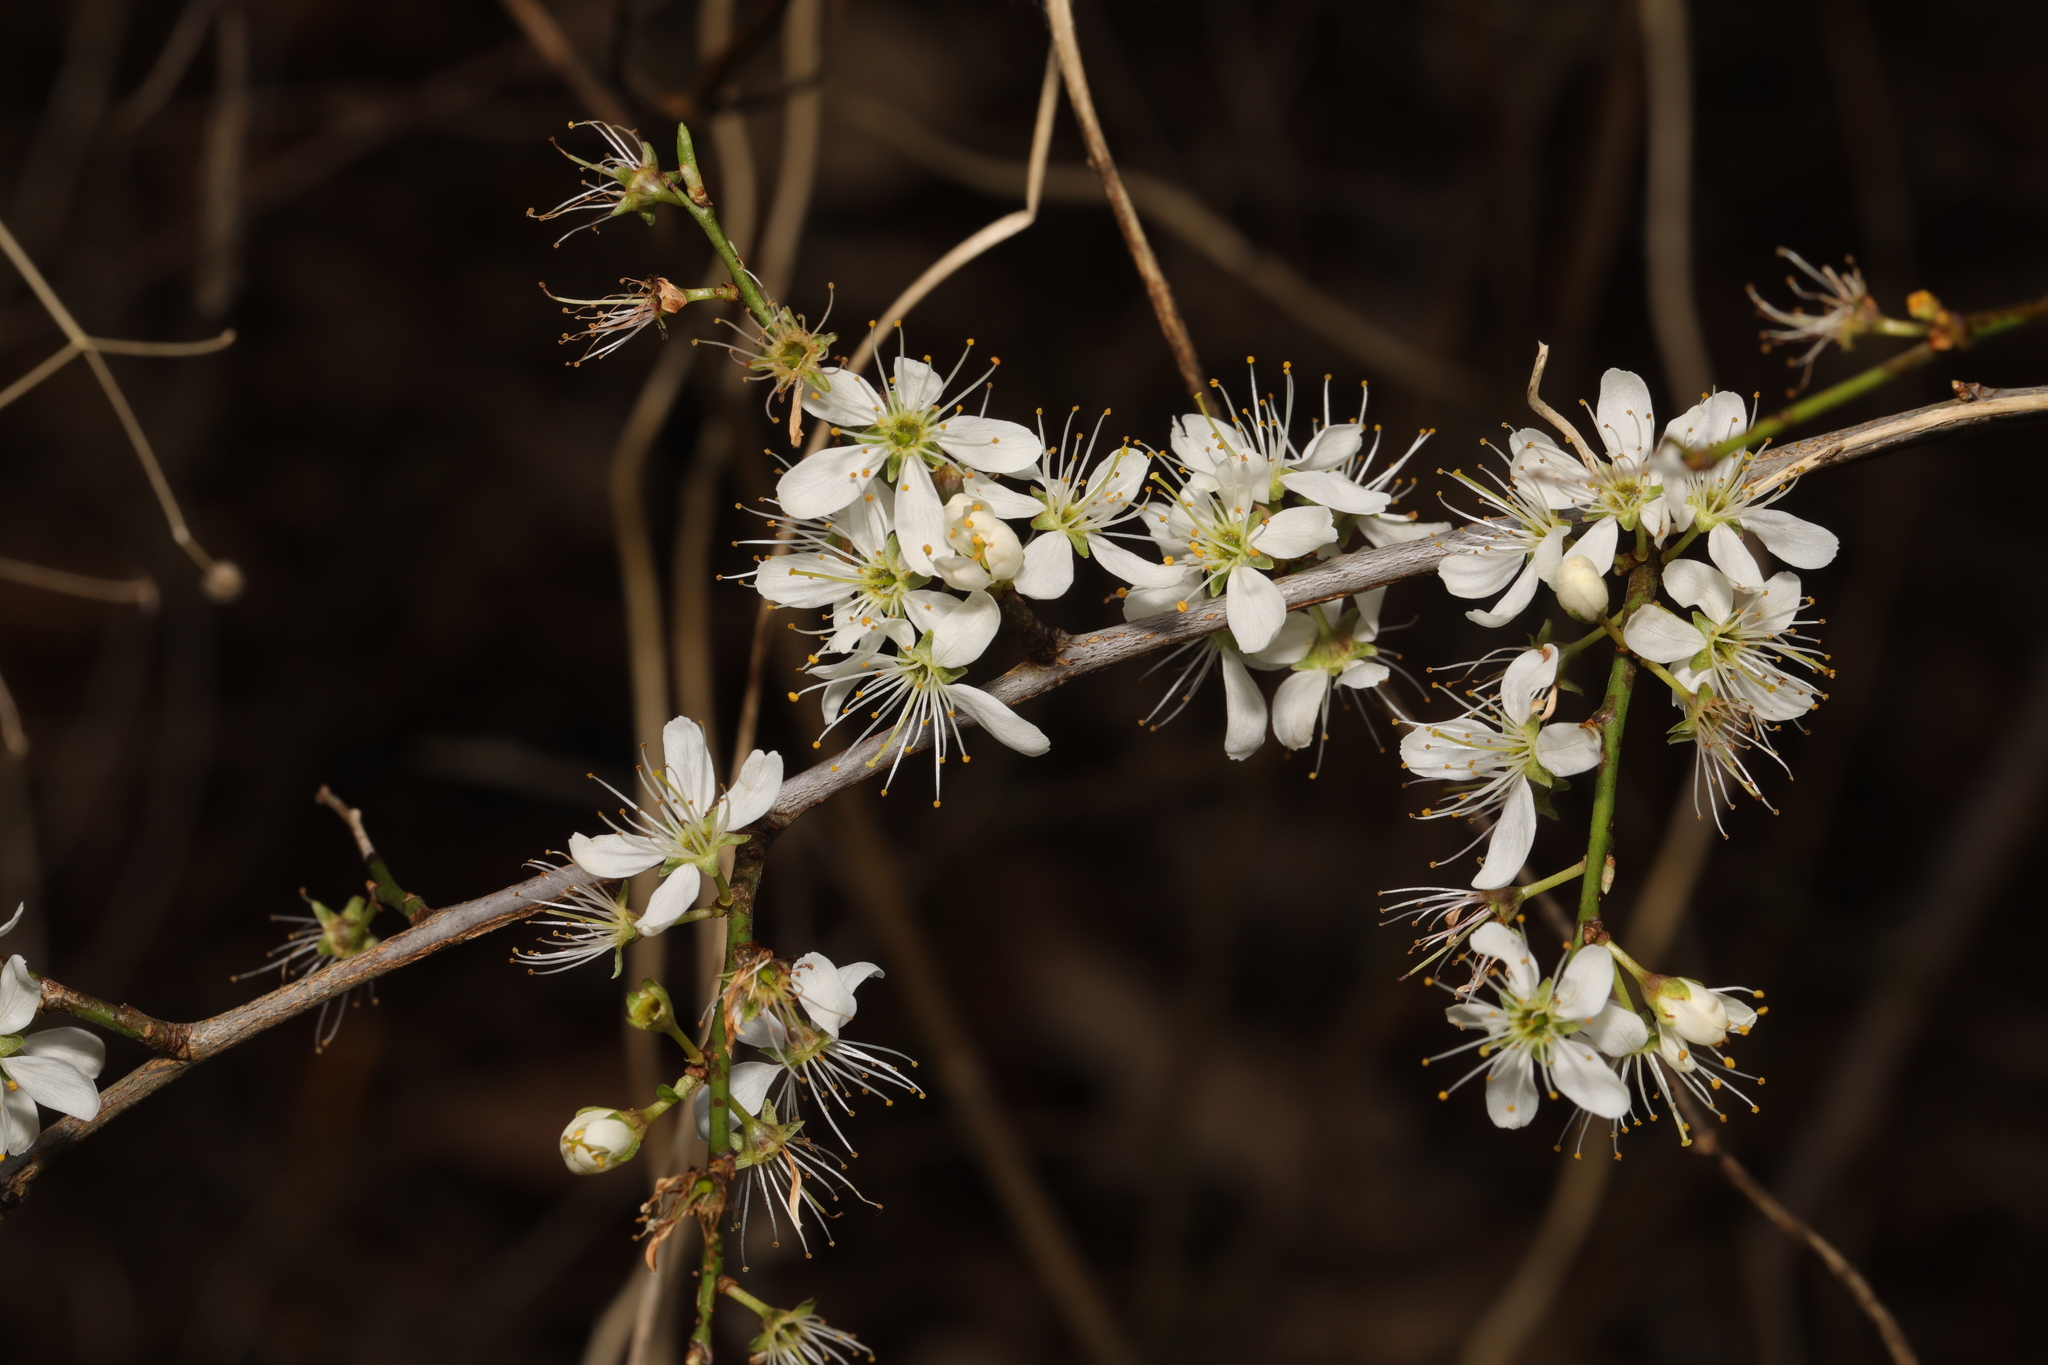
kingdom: Plantae
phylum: Tracheophyta
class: Magnoliopsida
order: Rosales
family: Rosaceae
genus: Prunus
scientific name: Prunus spinosa
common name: Blackthorn
